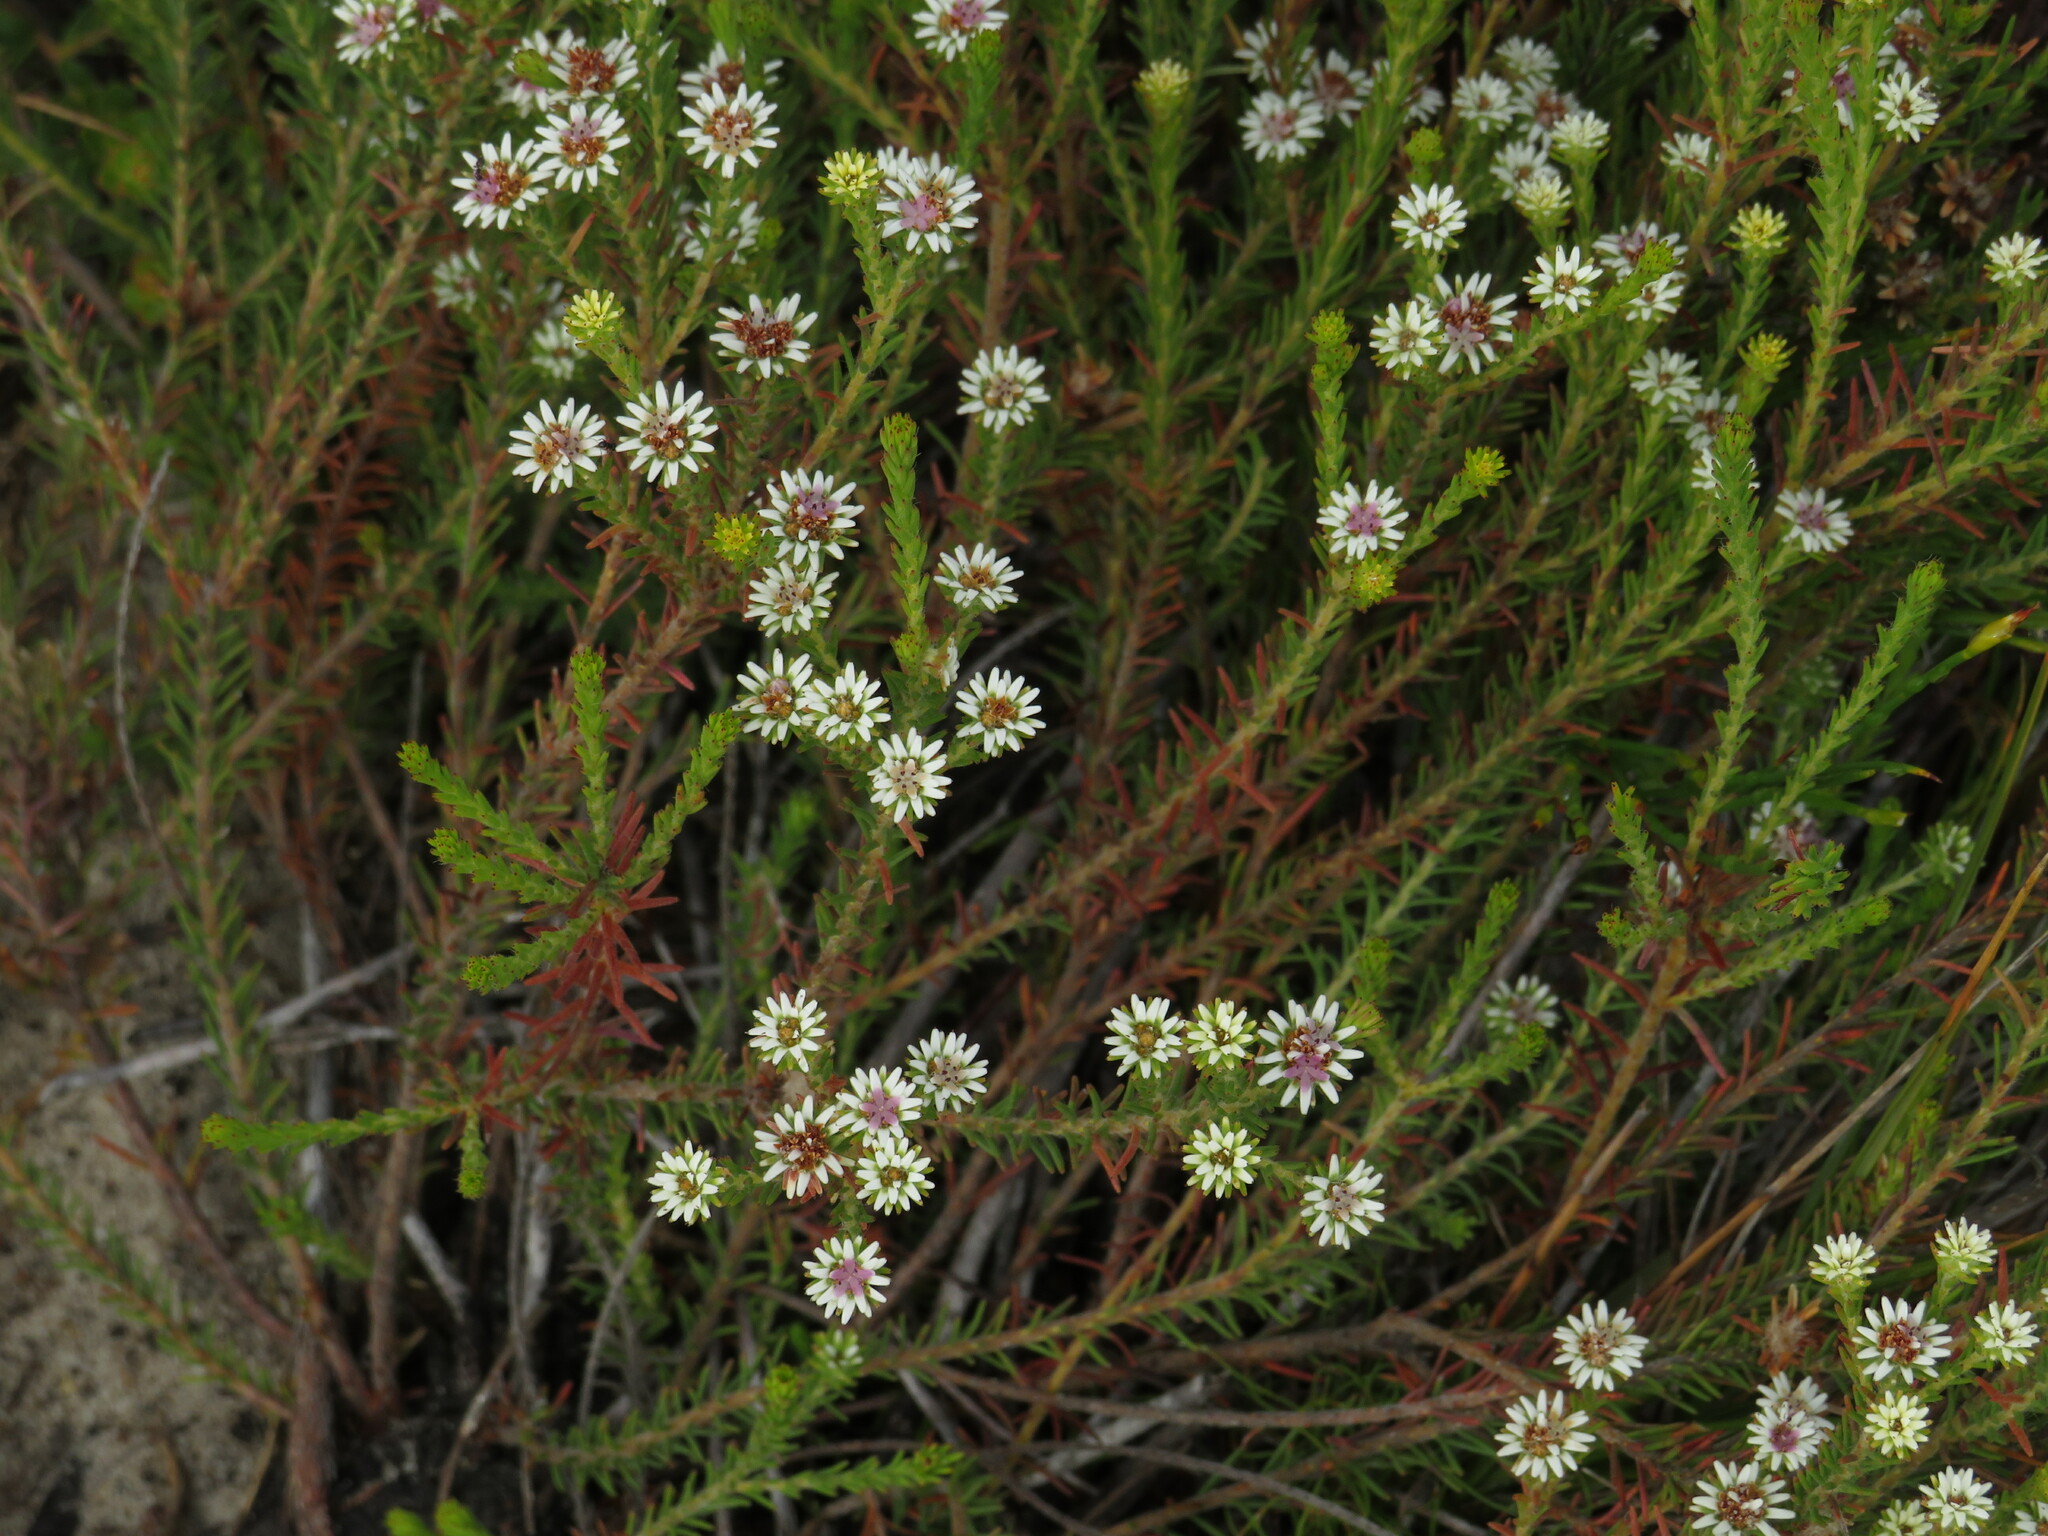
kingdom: Plantae
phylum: Tracheophyta
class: Magnoliopsida
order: Bruniales
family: Bruniaceae
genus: Staavia
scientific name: Staavia radiata
